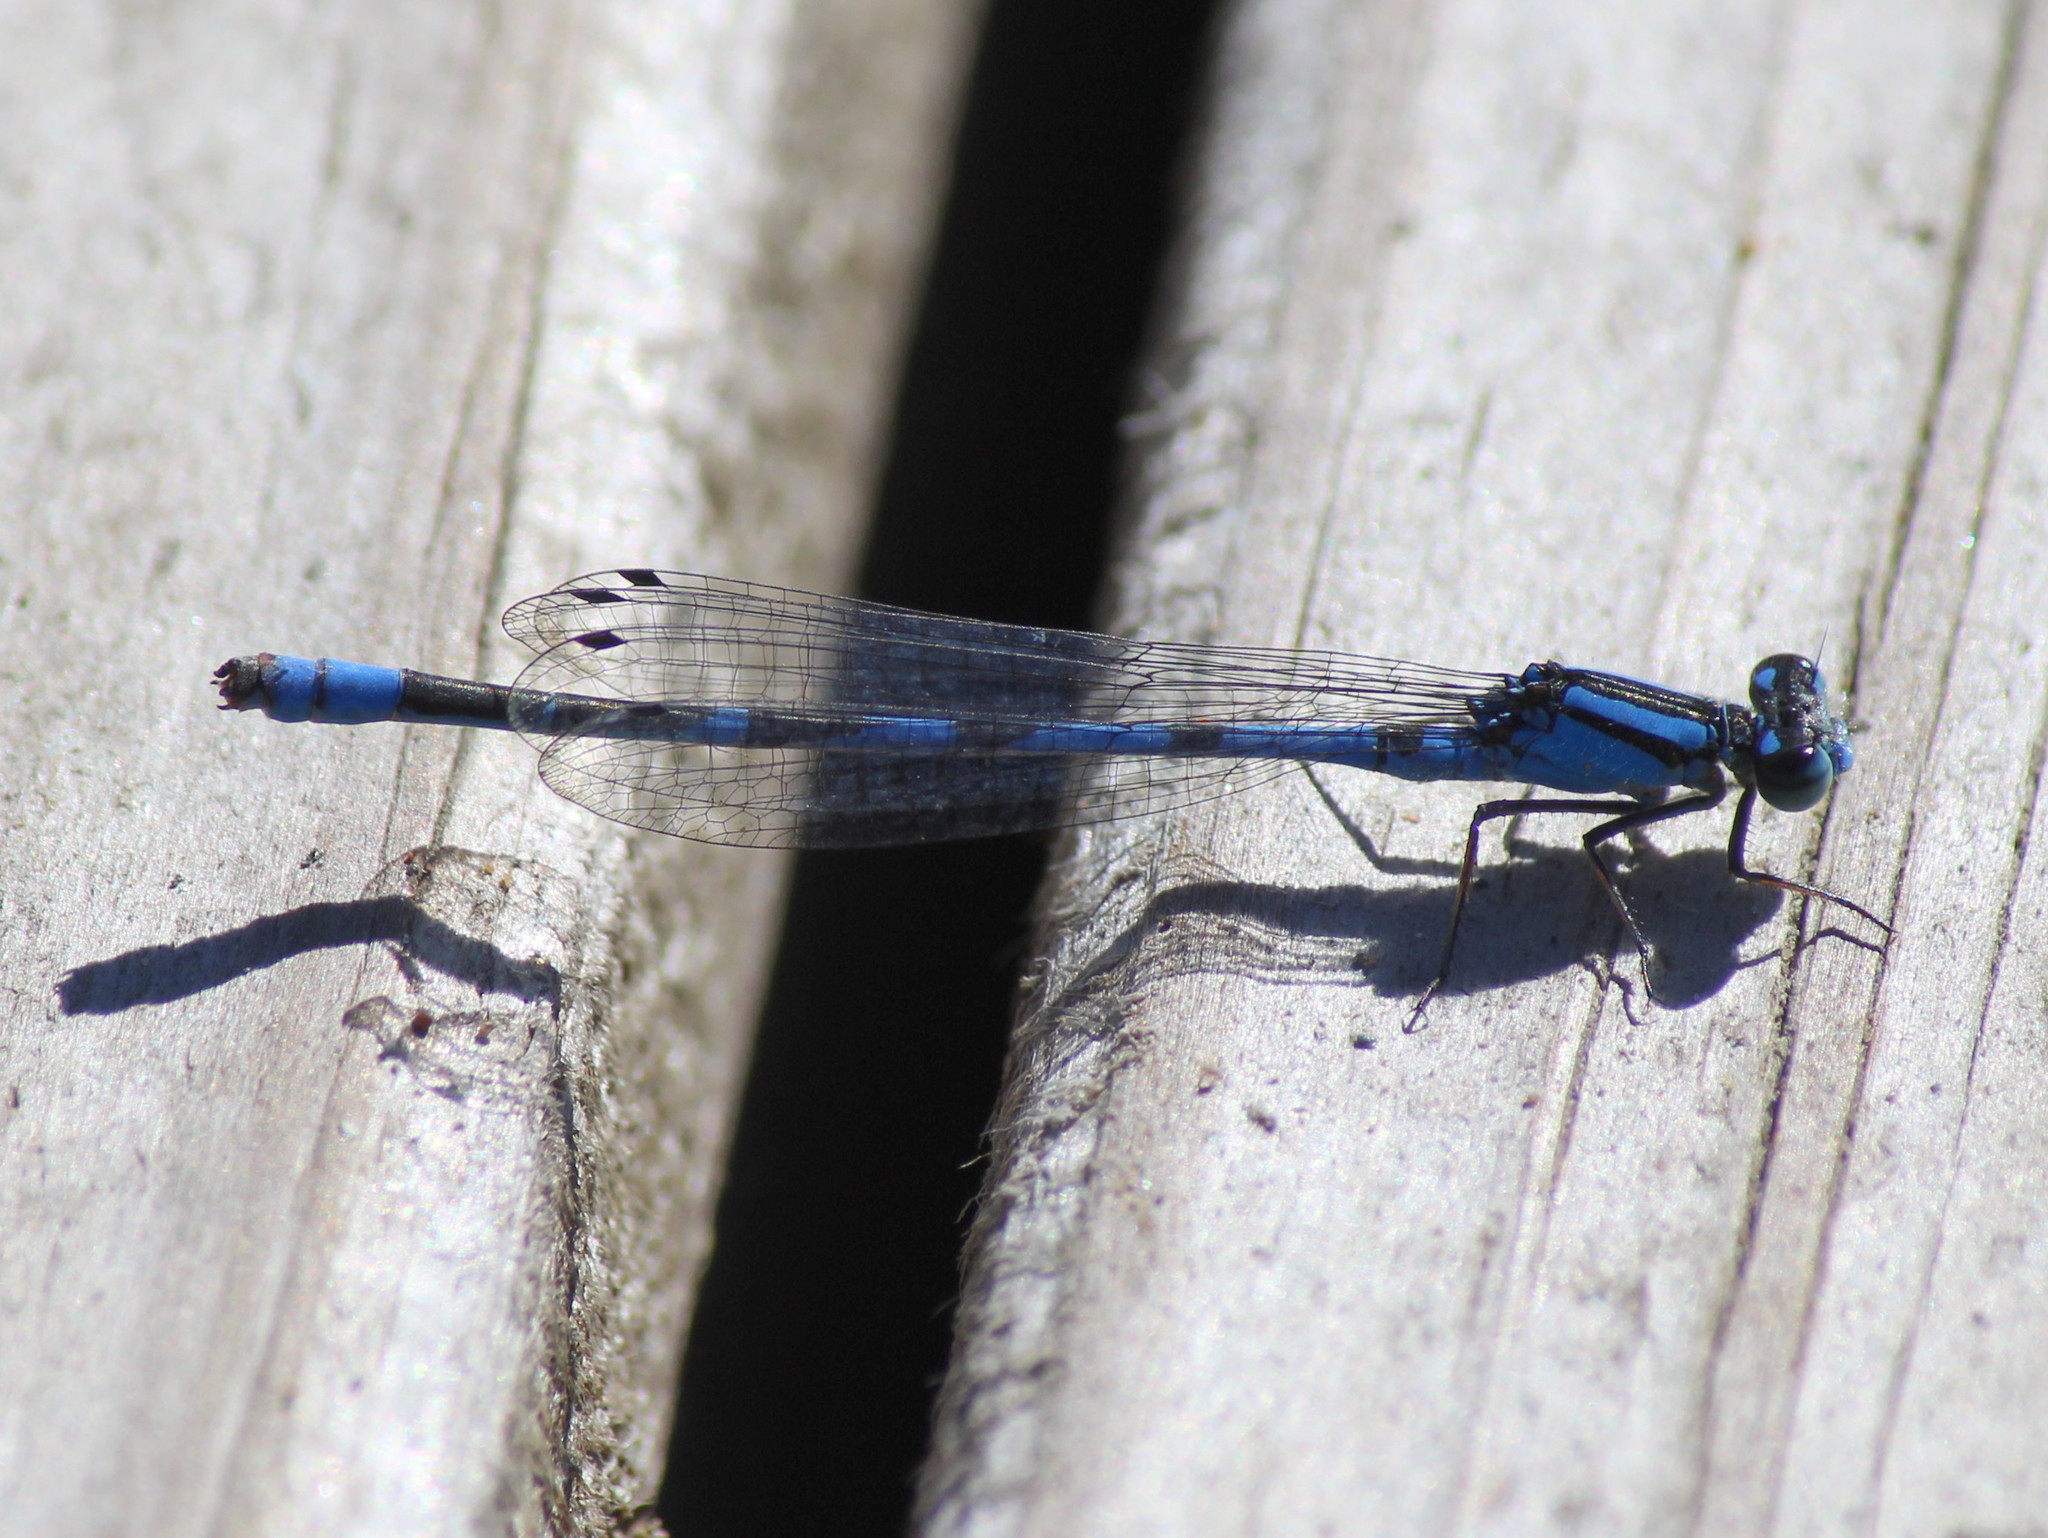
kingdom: Animalia
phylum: Arthropoda
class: Insecta
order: Odonata
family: Coenagrionidae
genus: Enallagma
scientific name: Enallagma hageni
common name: Hagen's bluet
